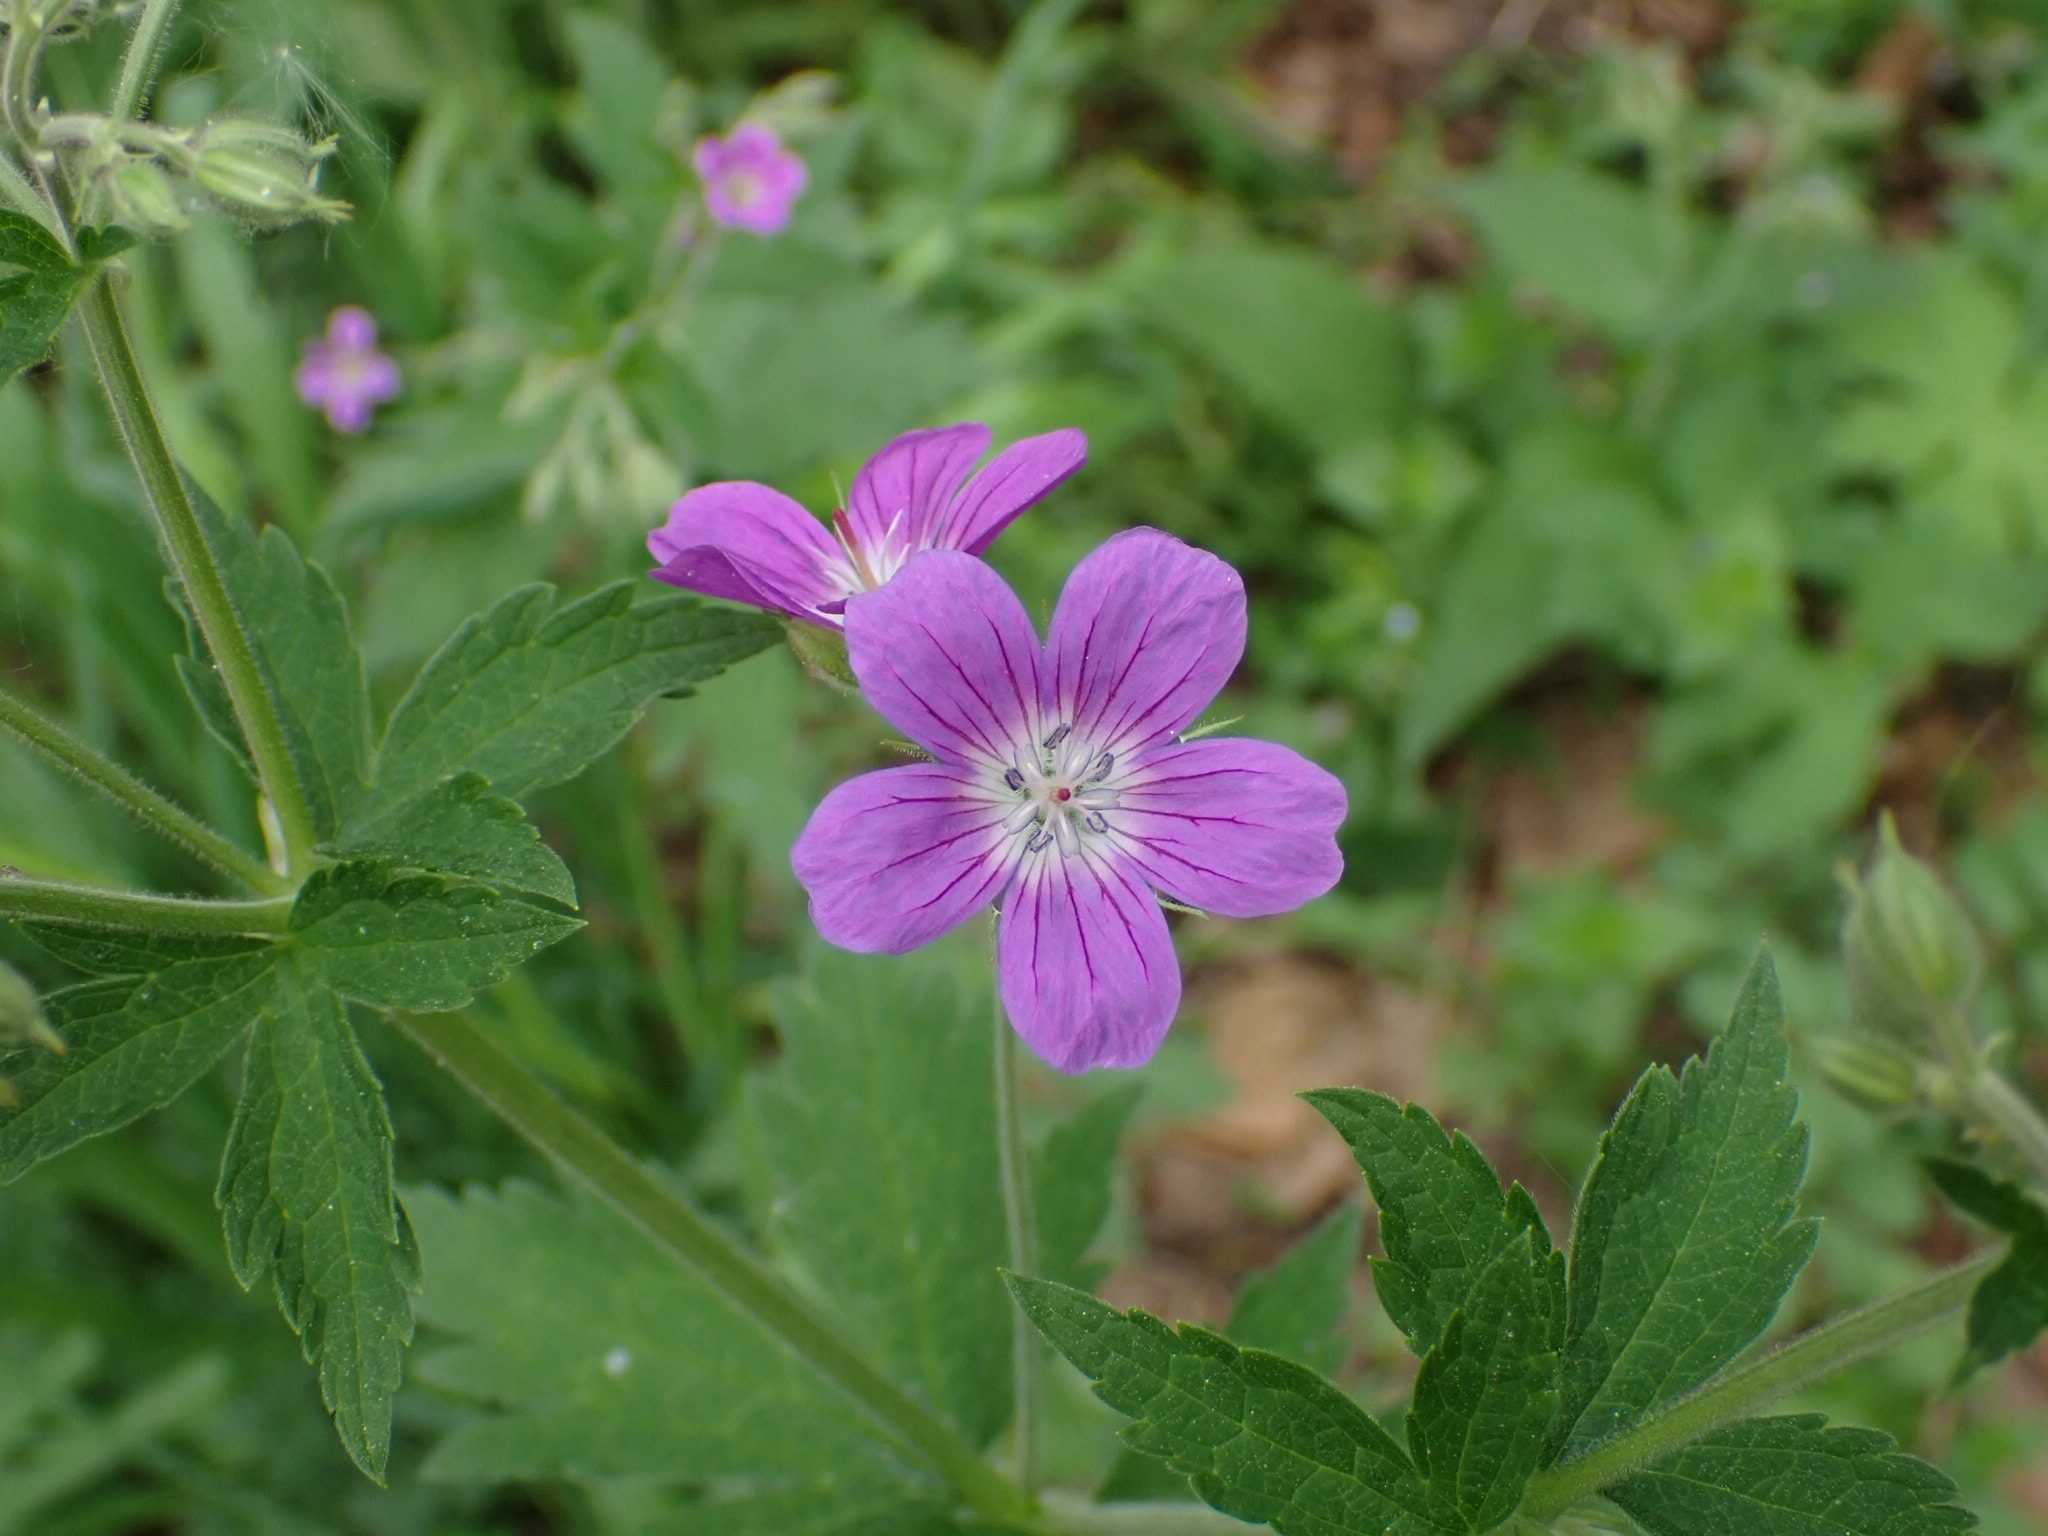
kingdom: Plantae
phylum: Tracheophyta
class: Magnoliopsida
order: Geraniales
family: Geraniaceae
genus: Geranium
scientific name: Geranium sylvaticum
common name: Wood crane's-bill
